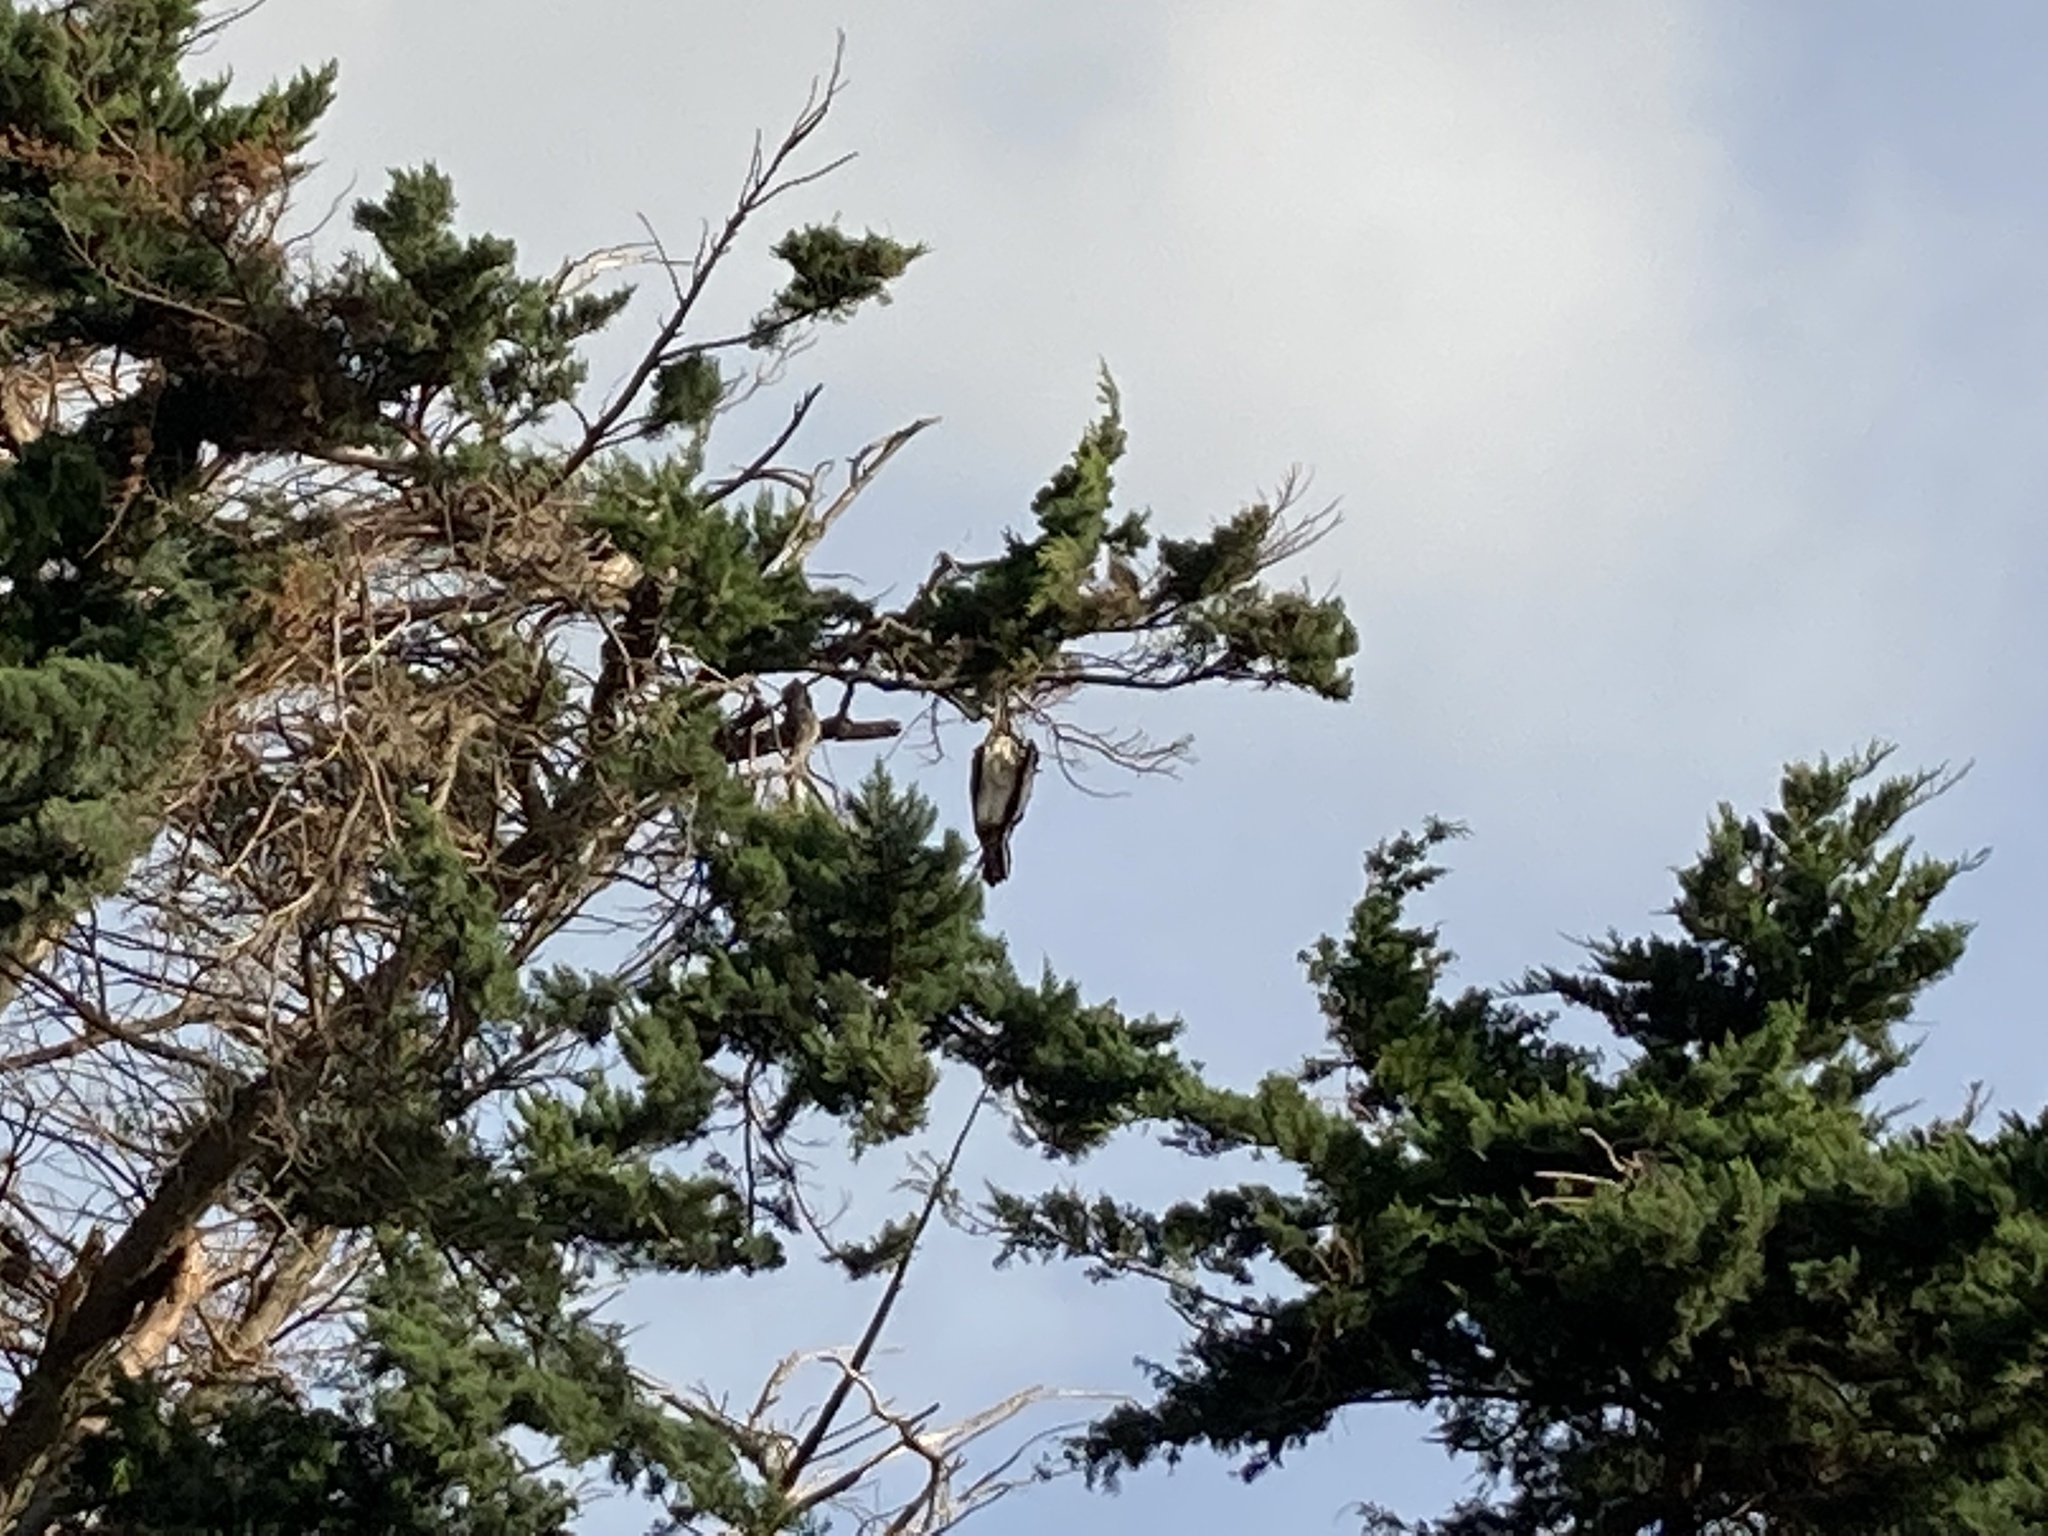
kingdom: Animalia
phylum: Chordata
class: Aves
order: Suliformes
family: Phalacrocoracidae
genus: Phalacrocorax
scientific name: Phalacrocorax varius
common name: Pied cormorant
